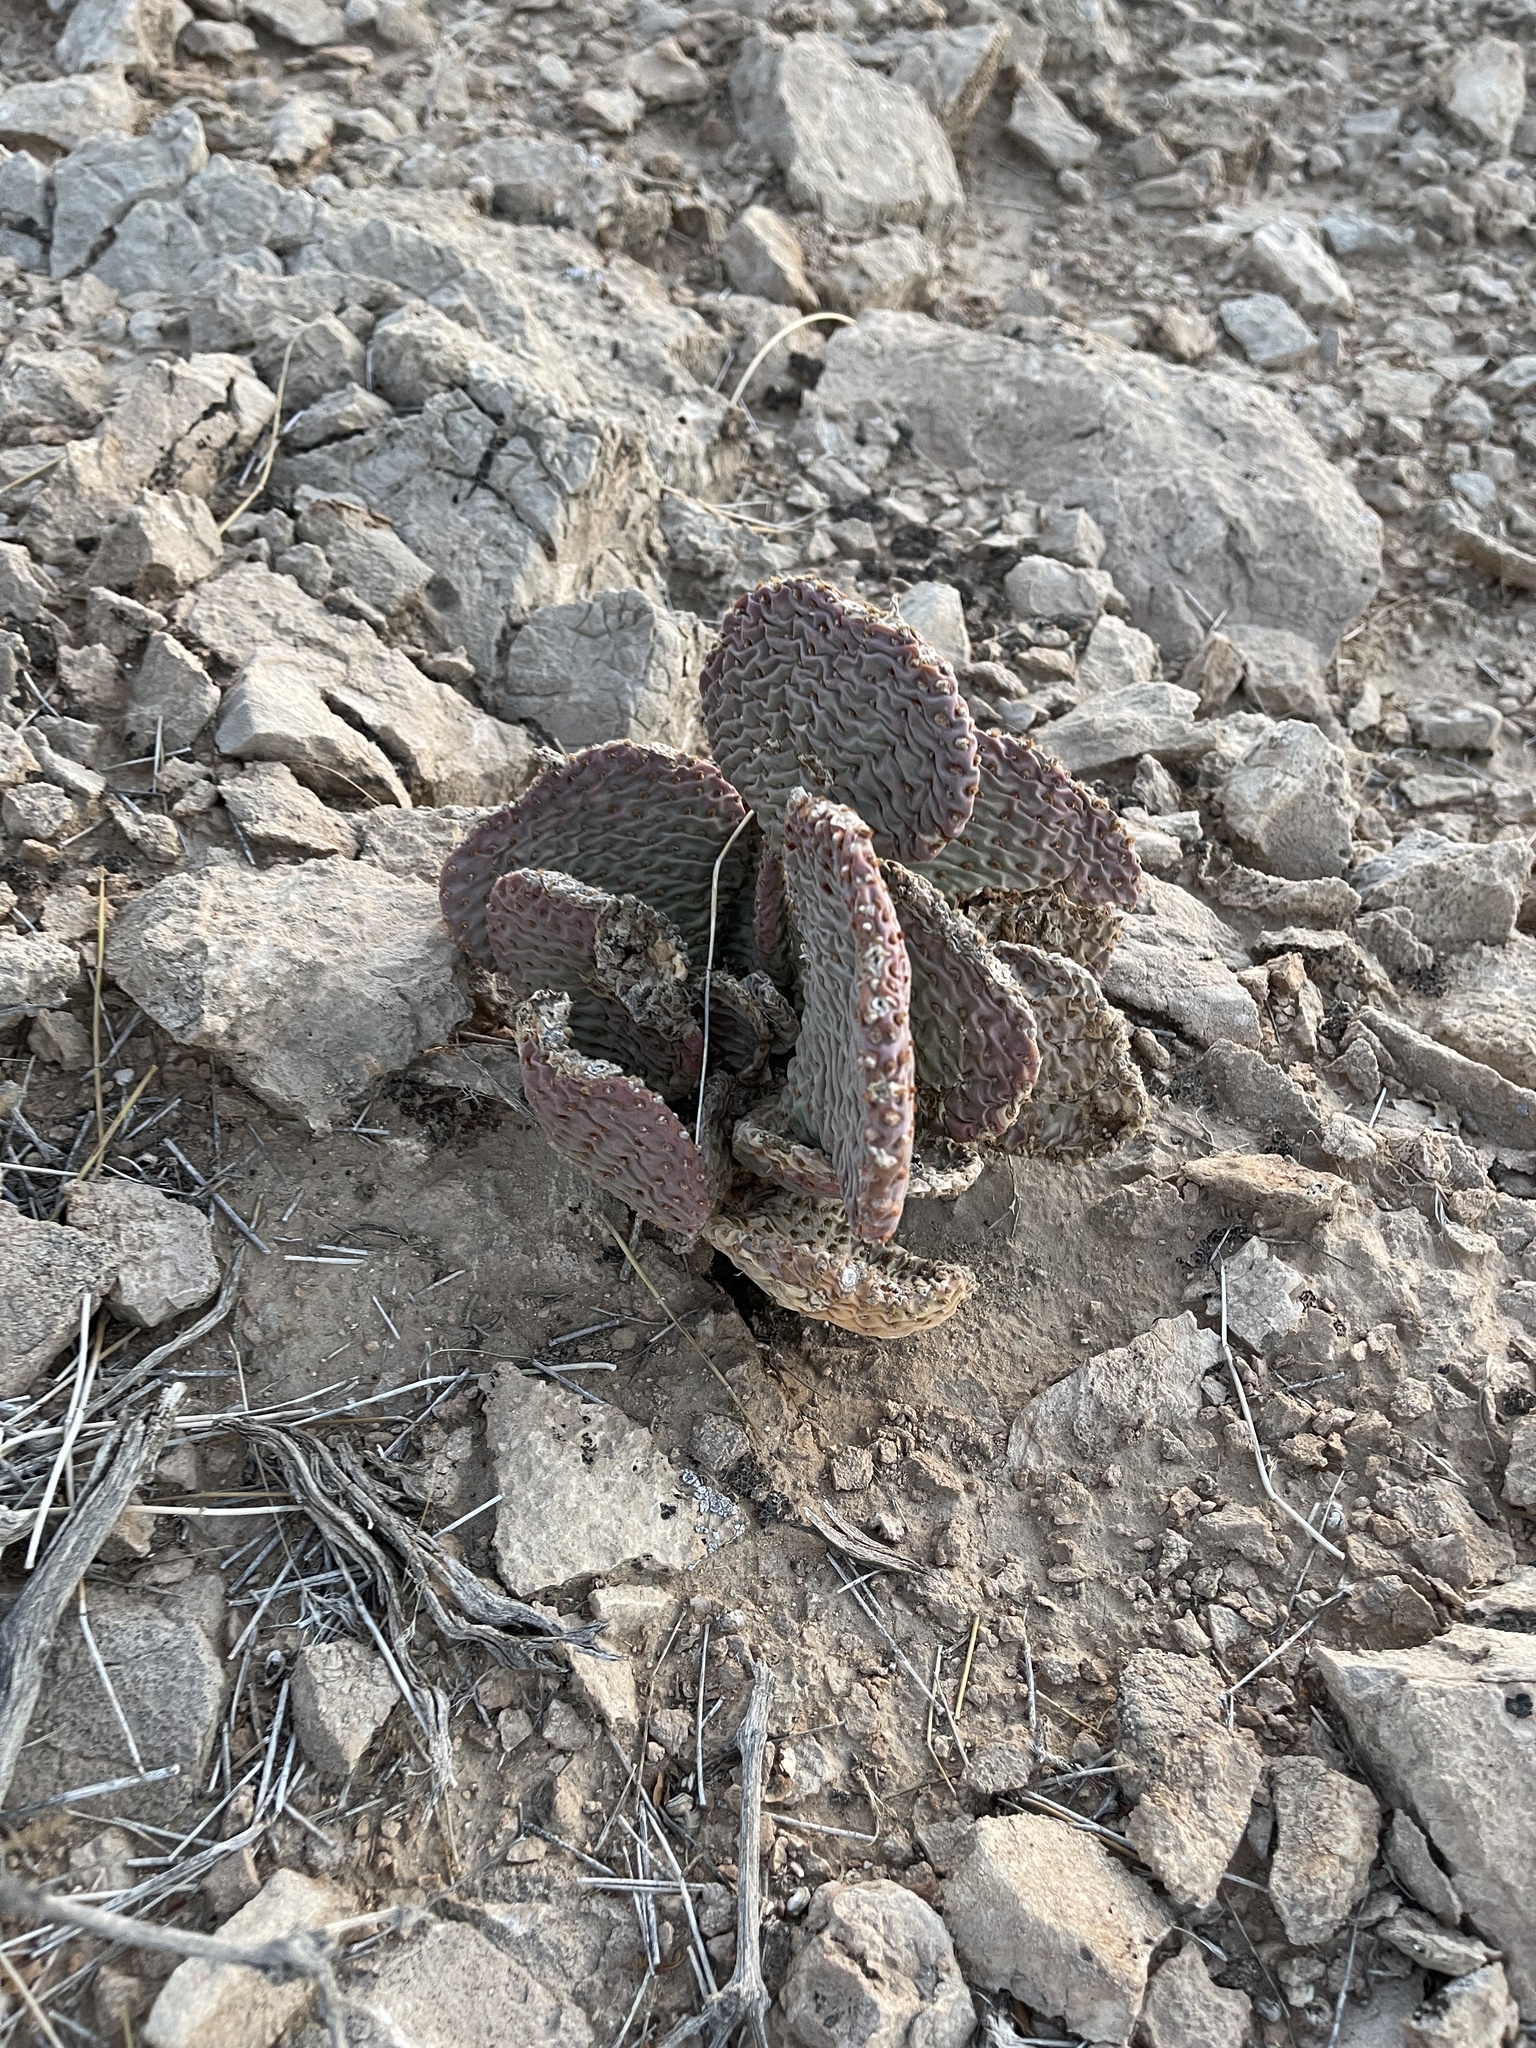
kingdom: Plantae
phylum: Tracheophyta
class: Magnoliopsida
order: Caryophyllales
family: Cactaceae
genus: Opuntia
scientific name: Opuntia basilaris
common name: Beavertail prickly-pear
